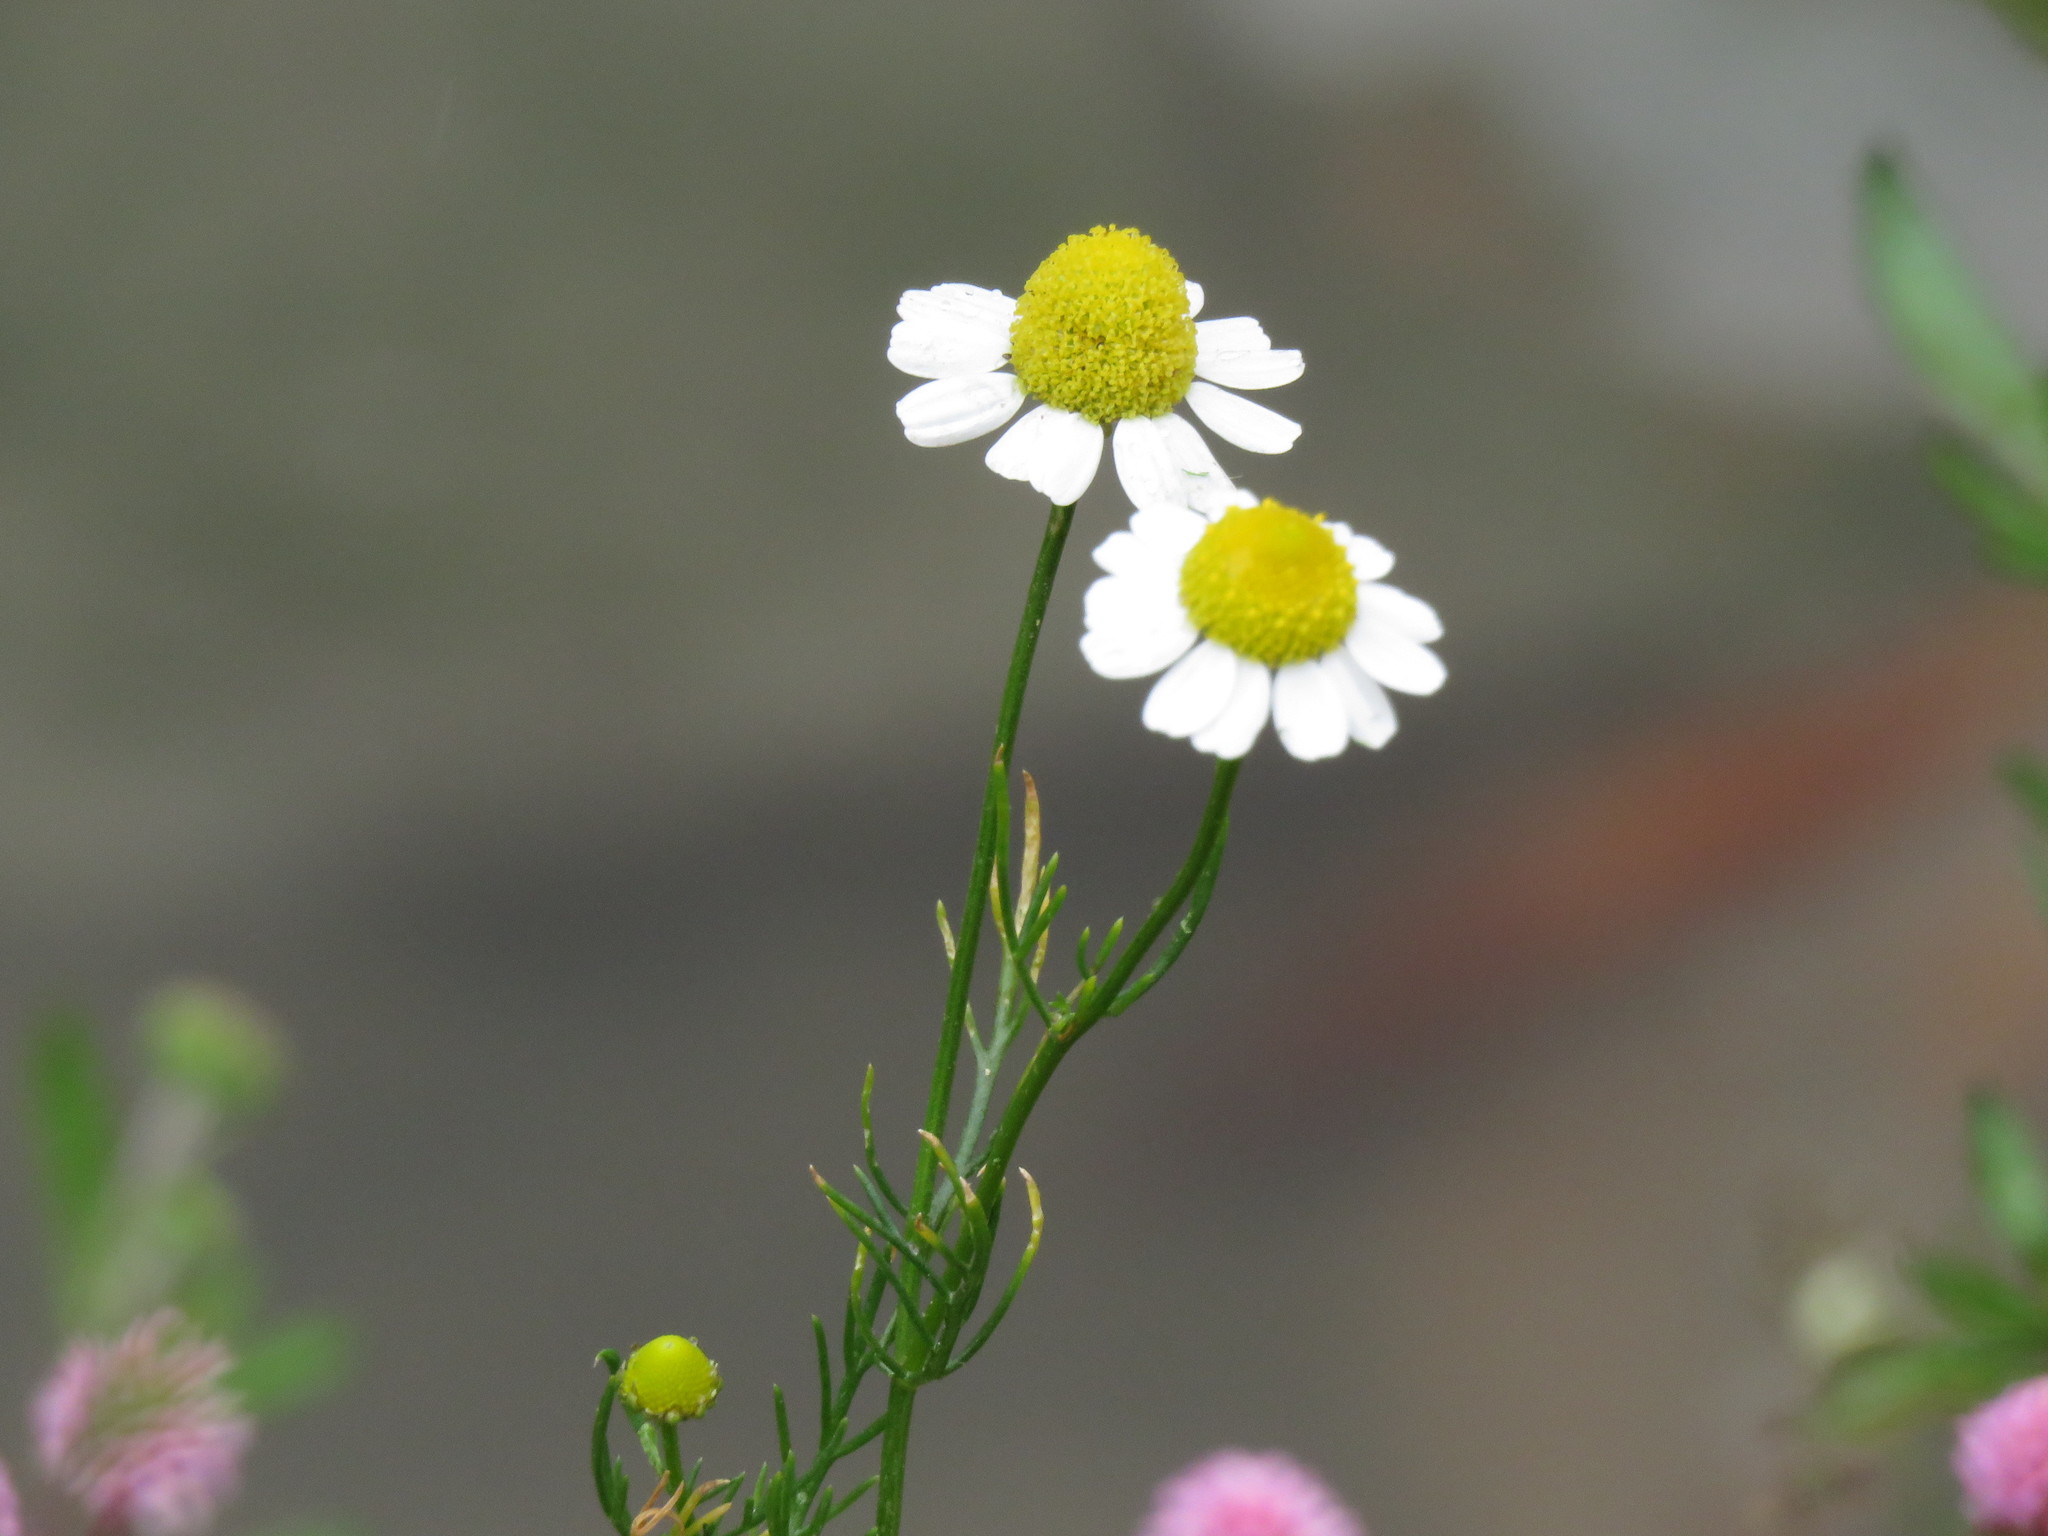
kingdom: Plantae
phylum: Tracheophyta
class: Magnoliopsida
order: Asterales
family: Asteraceae
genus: Matricaria
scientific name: Matricaria chamomilla
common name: Scented mayweed
